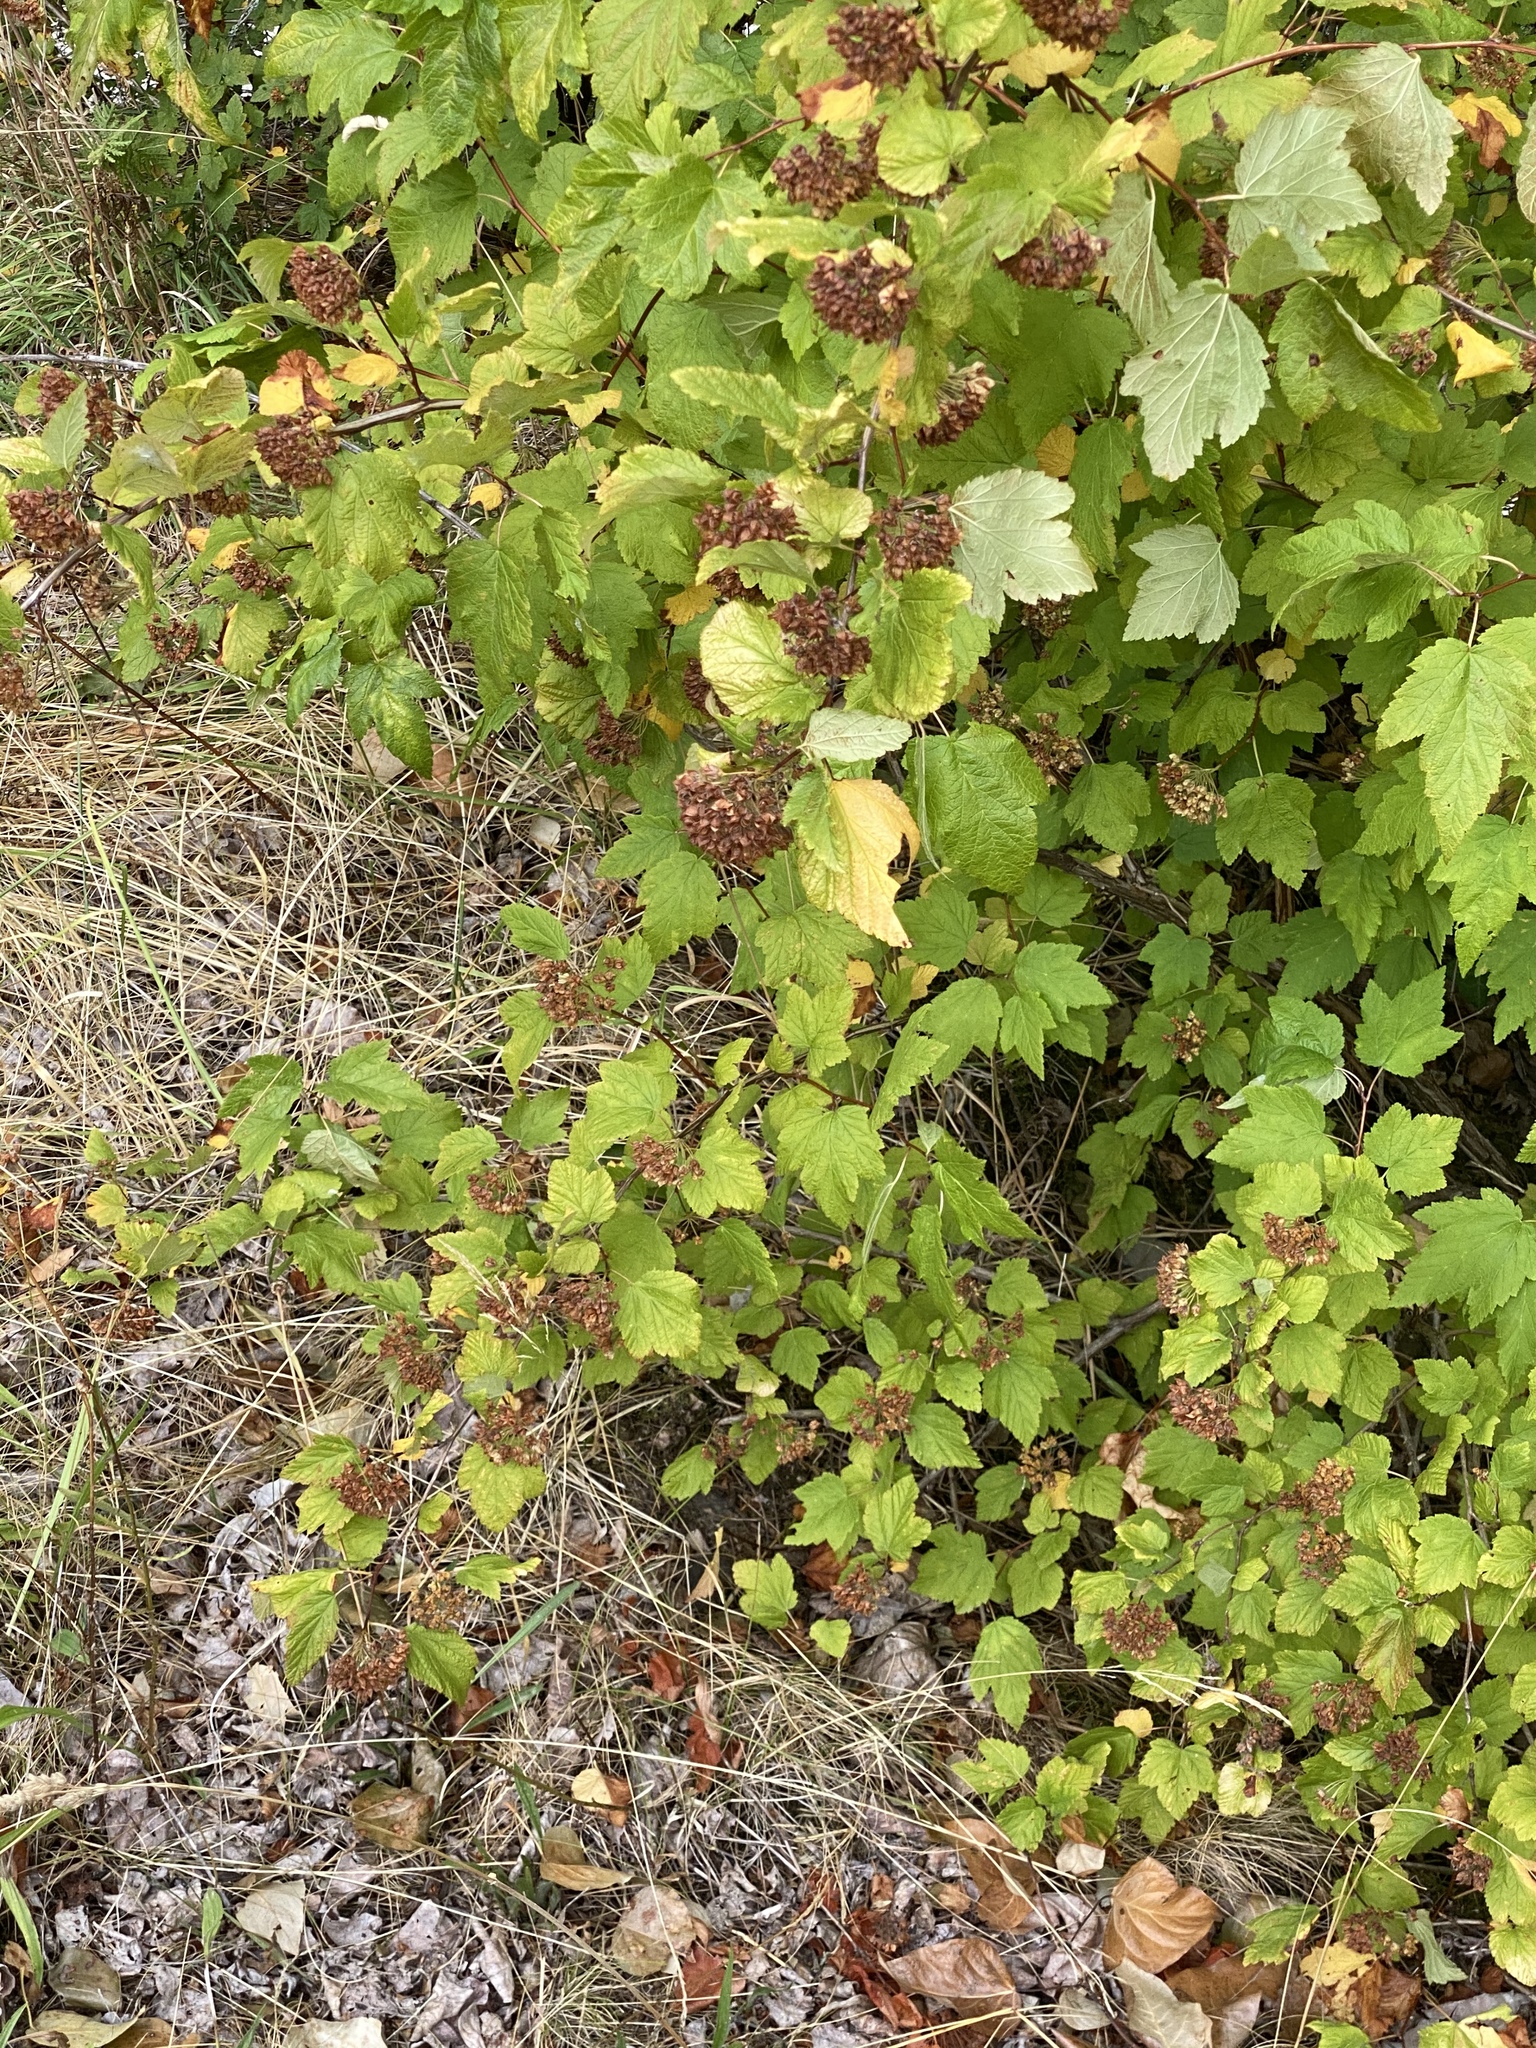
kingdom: Plantae
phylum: Tracheophyta
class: Magnoliopsida
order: Rosales
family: Rosaceae
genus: Physocarpus
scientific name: Physocarpus capitatus
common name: Pacific ninebark
